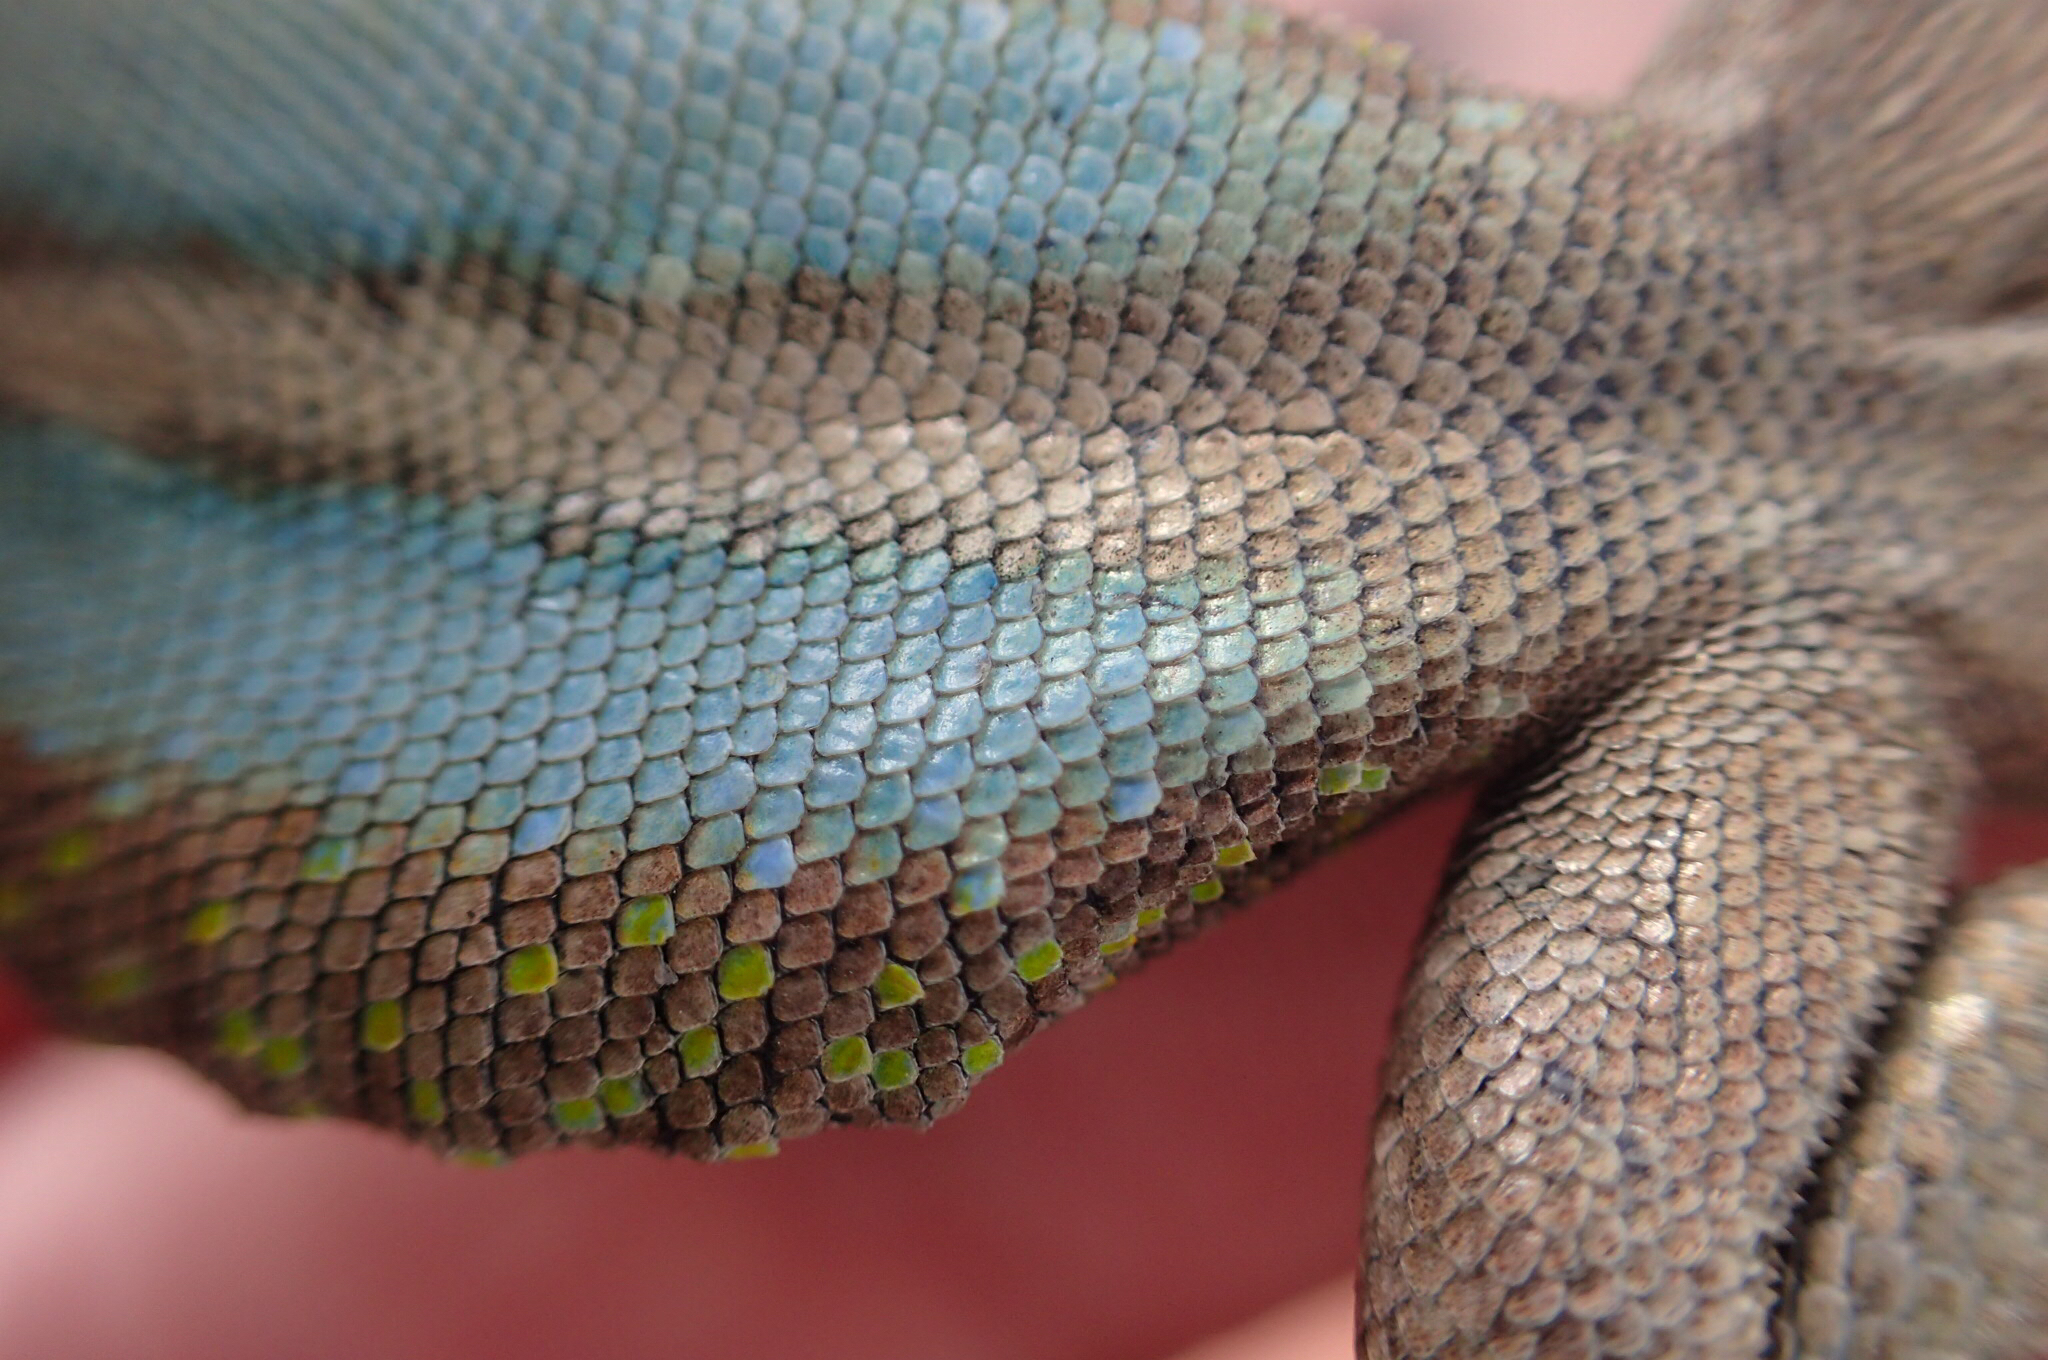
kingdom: Animalia
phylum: Chordata
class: Squamata
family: Phrynosomatidae
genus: Sceloporus
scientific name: Sceloporus grammicus
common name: Mesquite lizard
